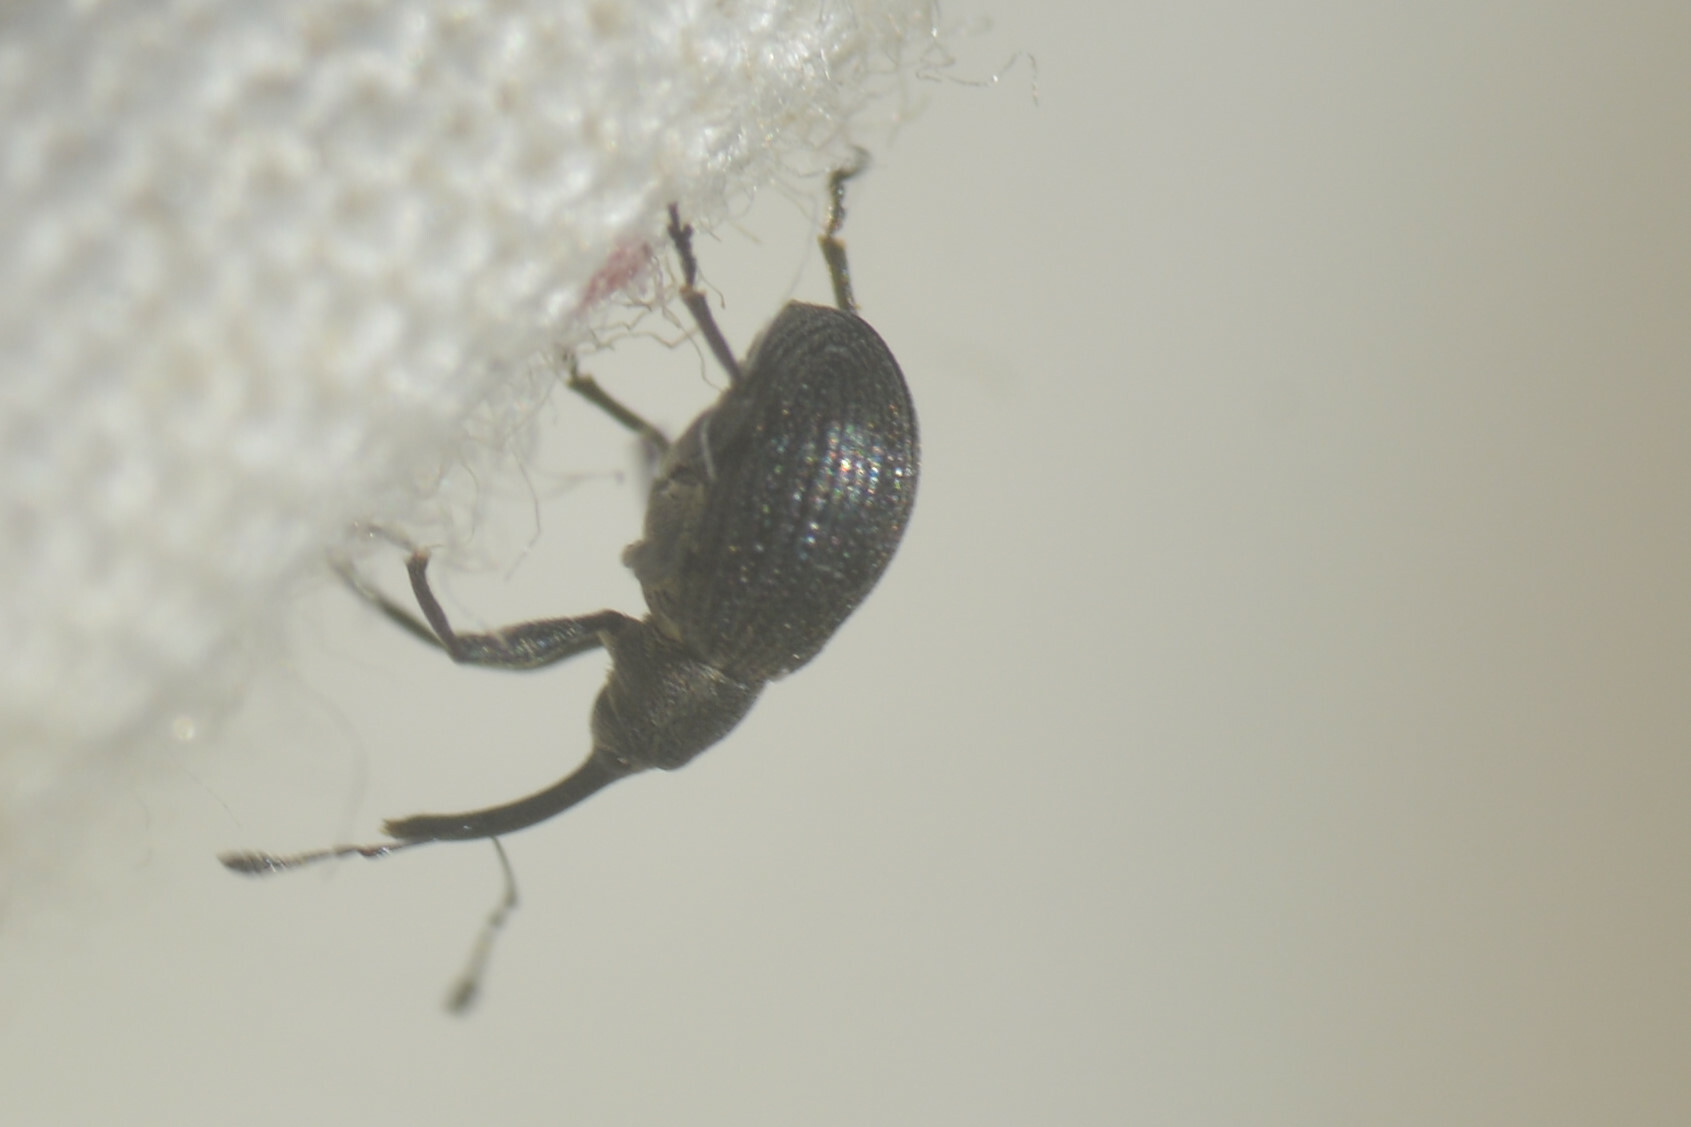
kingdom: Animalia
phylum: Arthropoda
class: Insecta
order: Coleoptera
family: Curculionidae
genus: Anthonomus
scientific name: Anthonomus rubi
